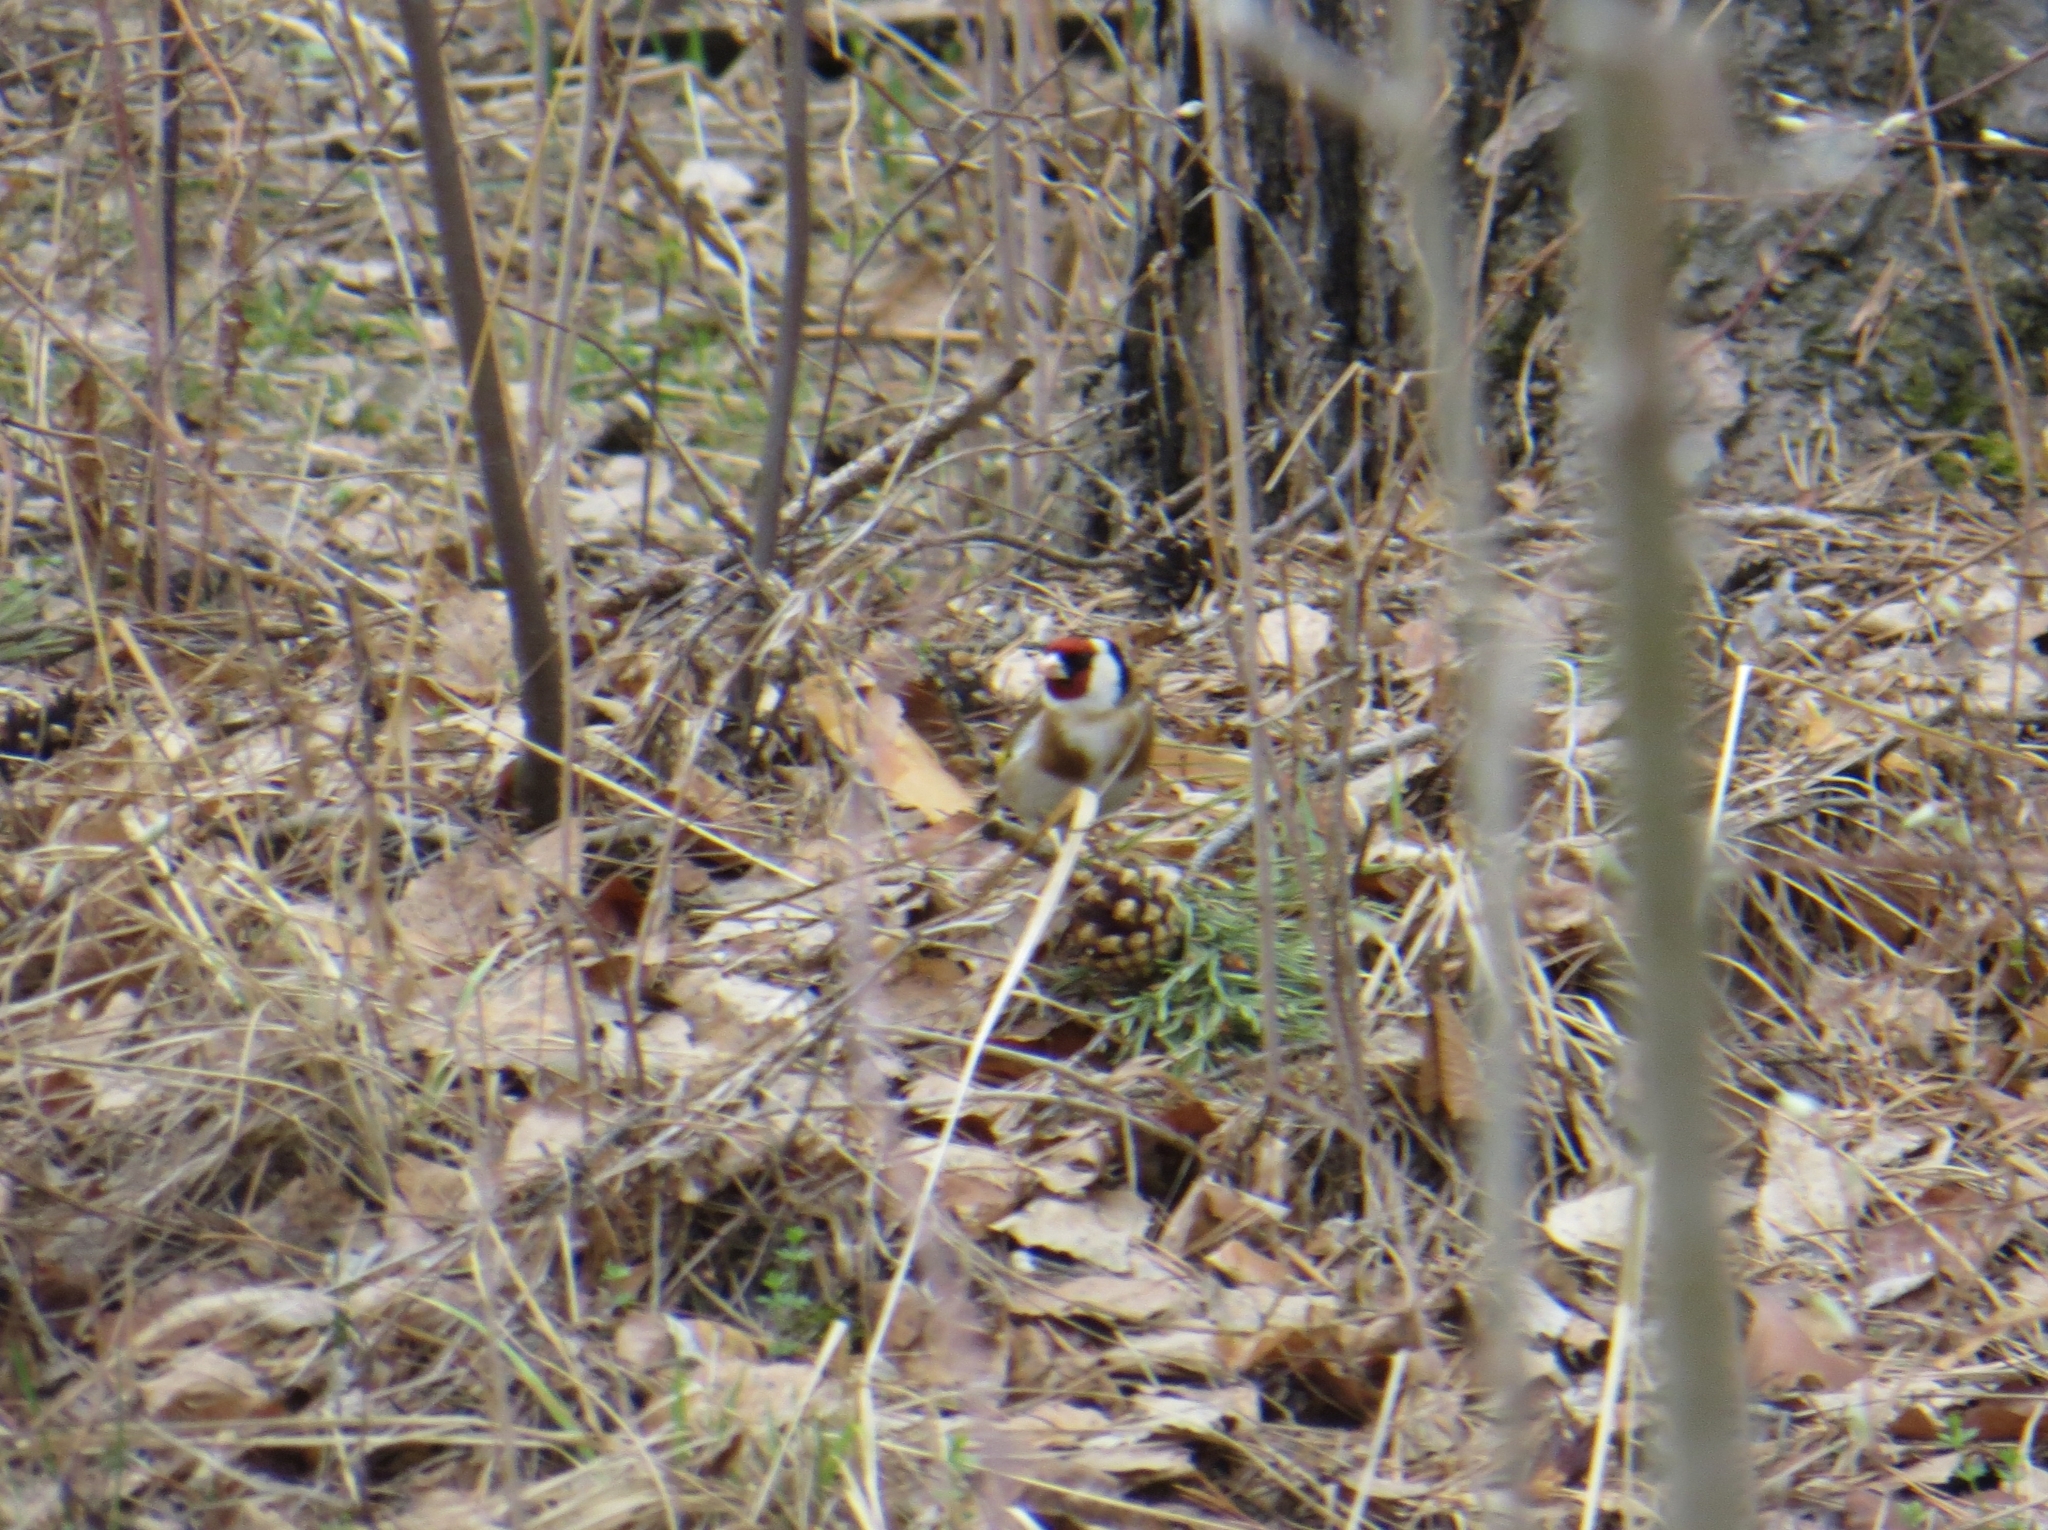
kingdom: Animalia
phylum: Chordata
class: Aves
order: Passeriformes
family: Fringillidae
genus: Carduelis
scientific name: Carduelis carduelis
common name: European goldfinch
